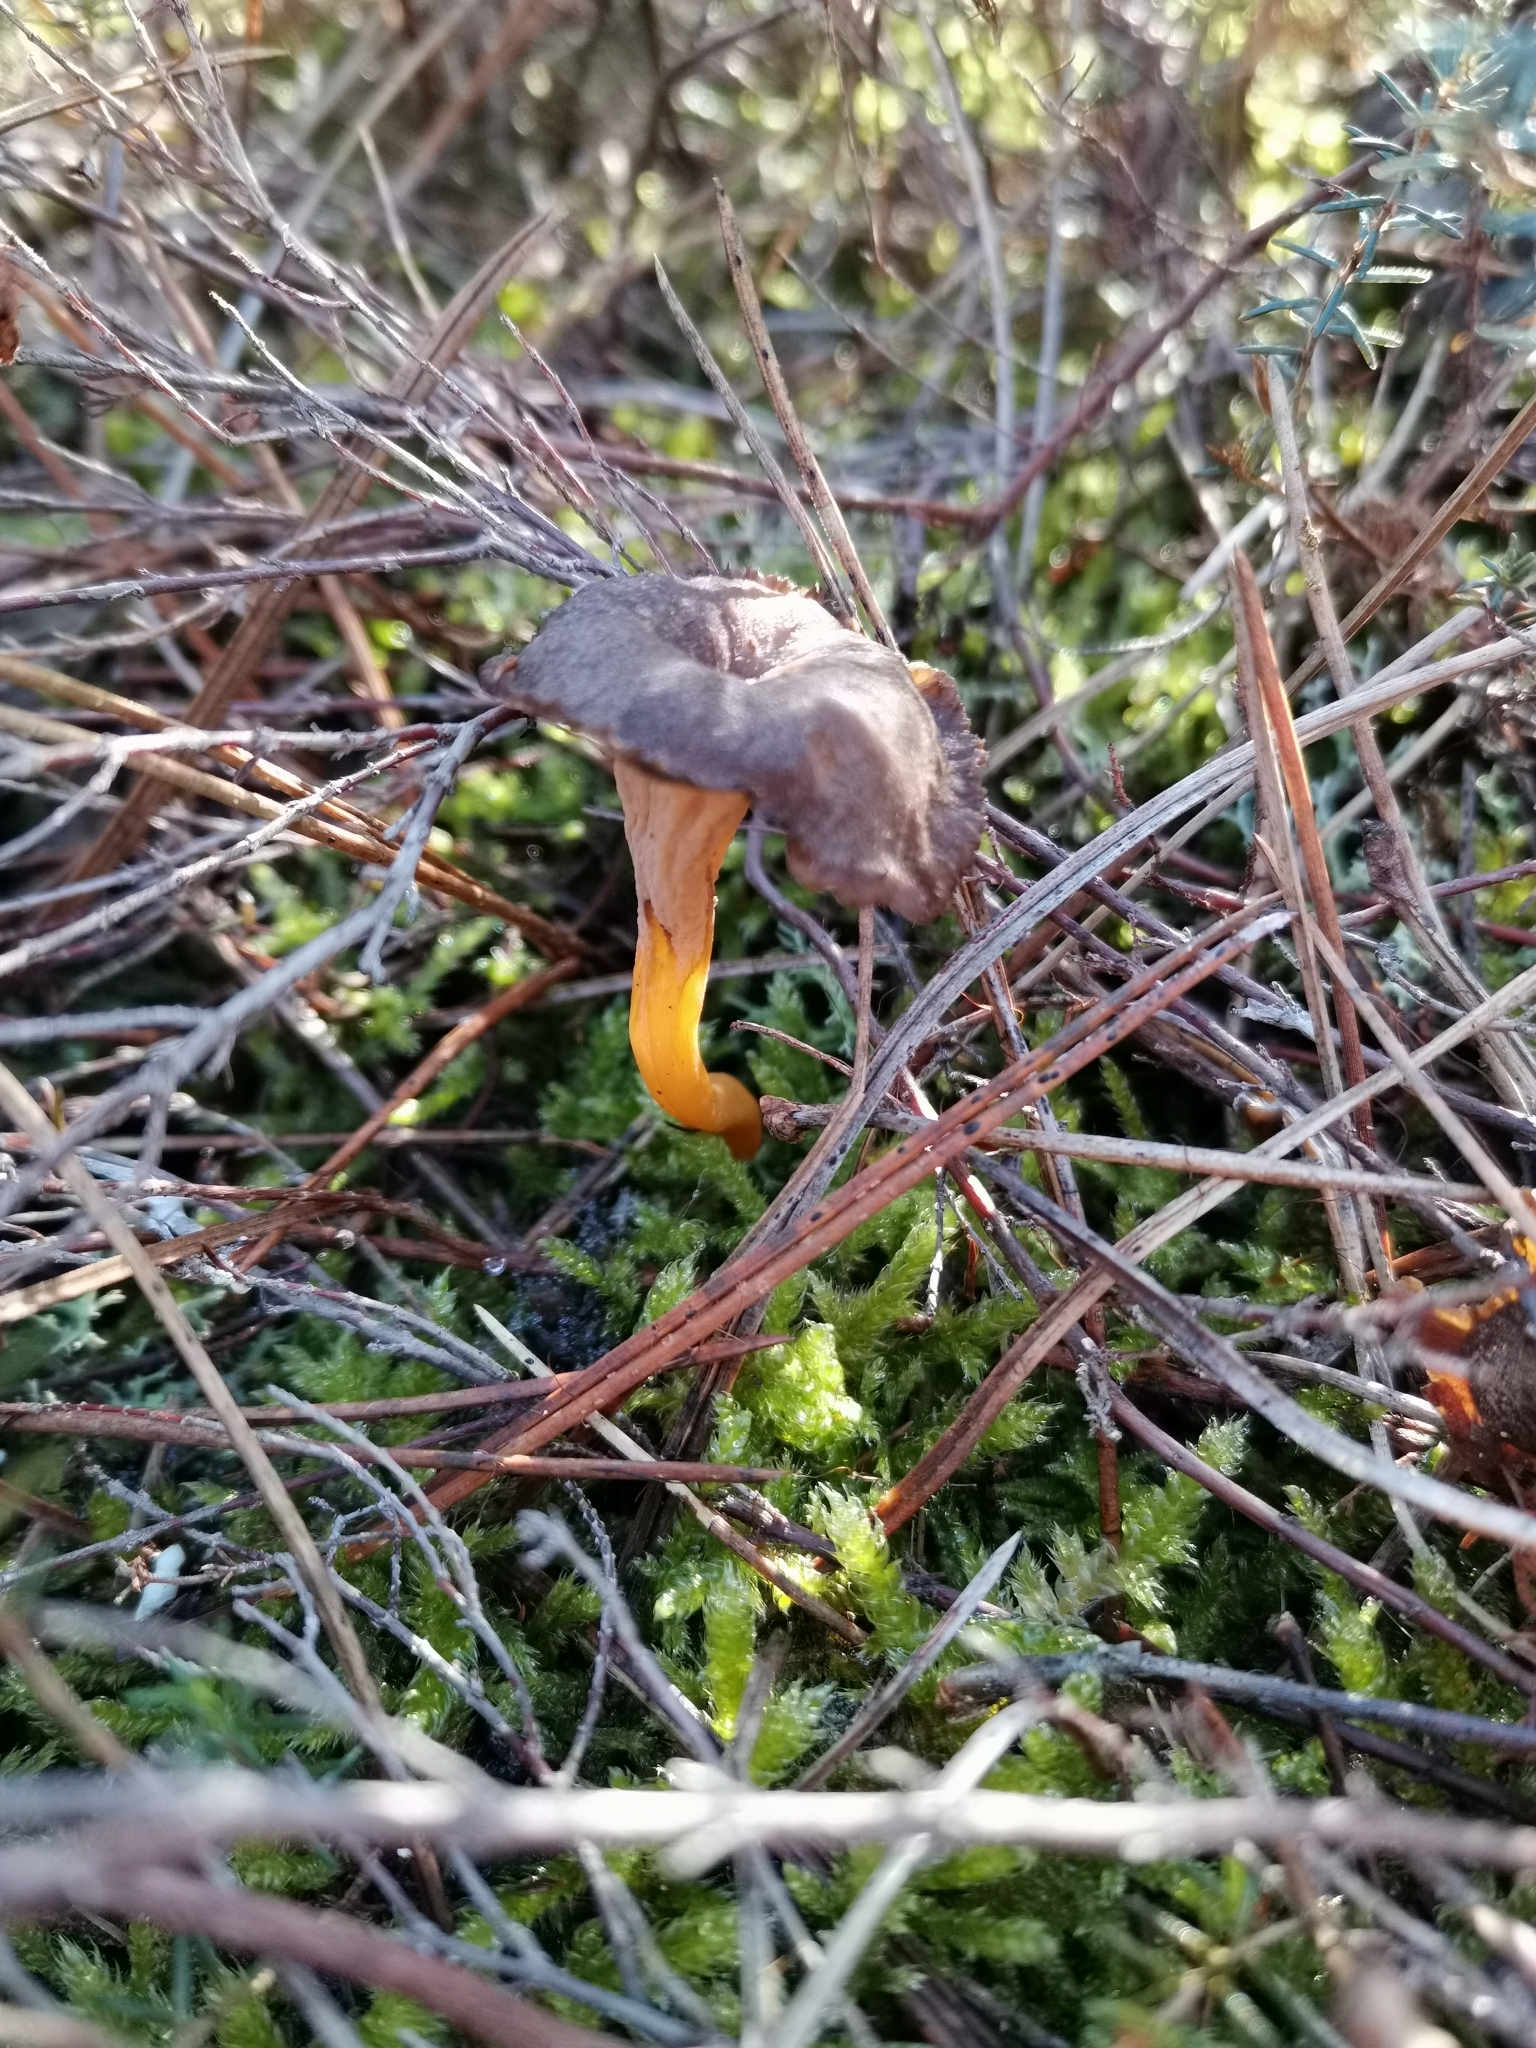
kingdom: Fungi
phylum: Basidiomycota
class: Agaricomycetes
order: Cantharellales
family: Hydnaceae
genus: Craterellus
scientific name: Craterellus lutescens
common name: Golden chanterelle
